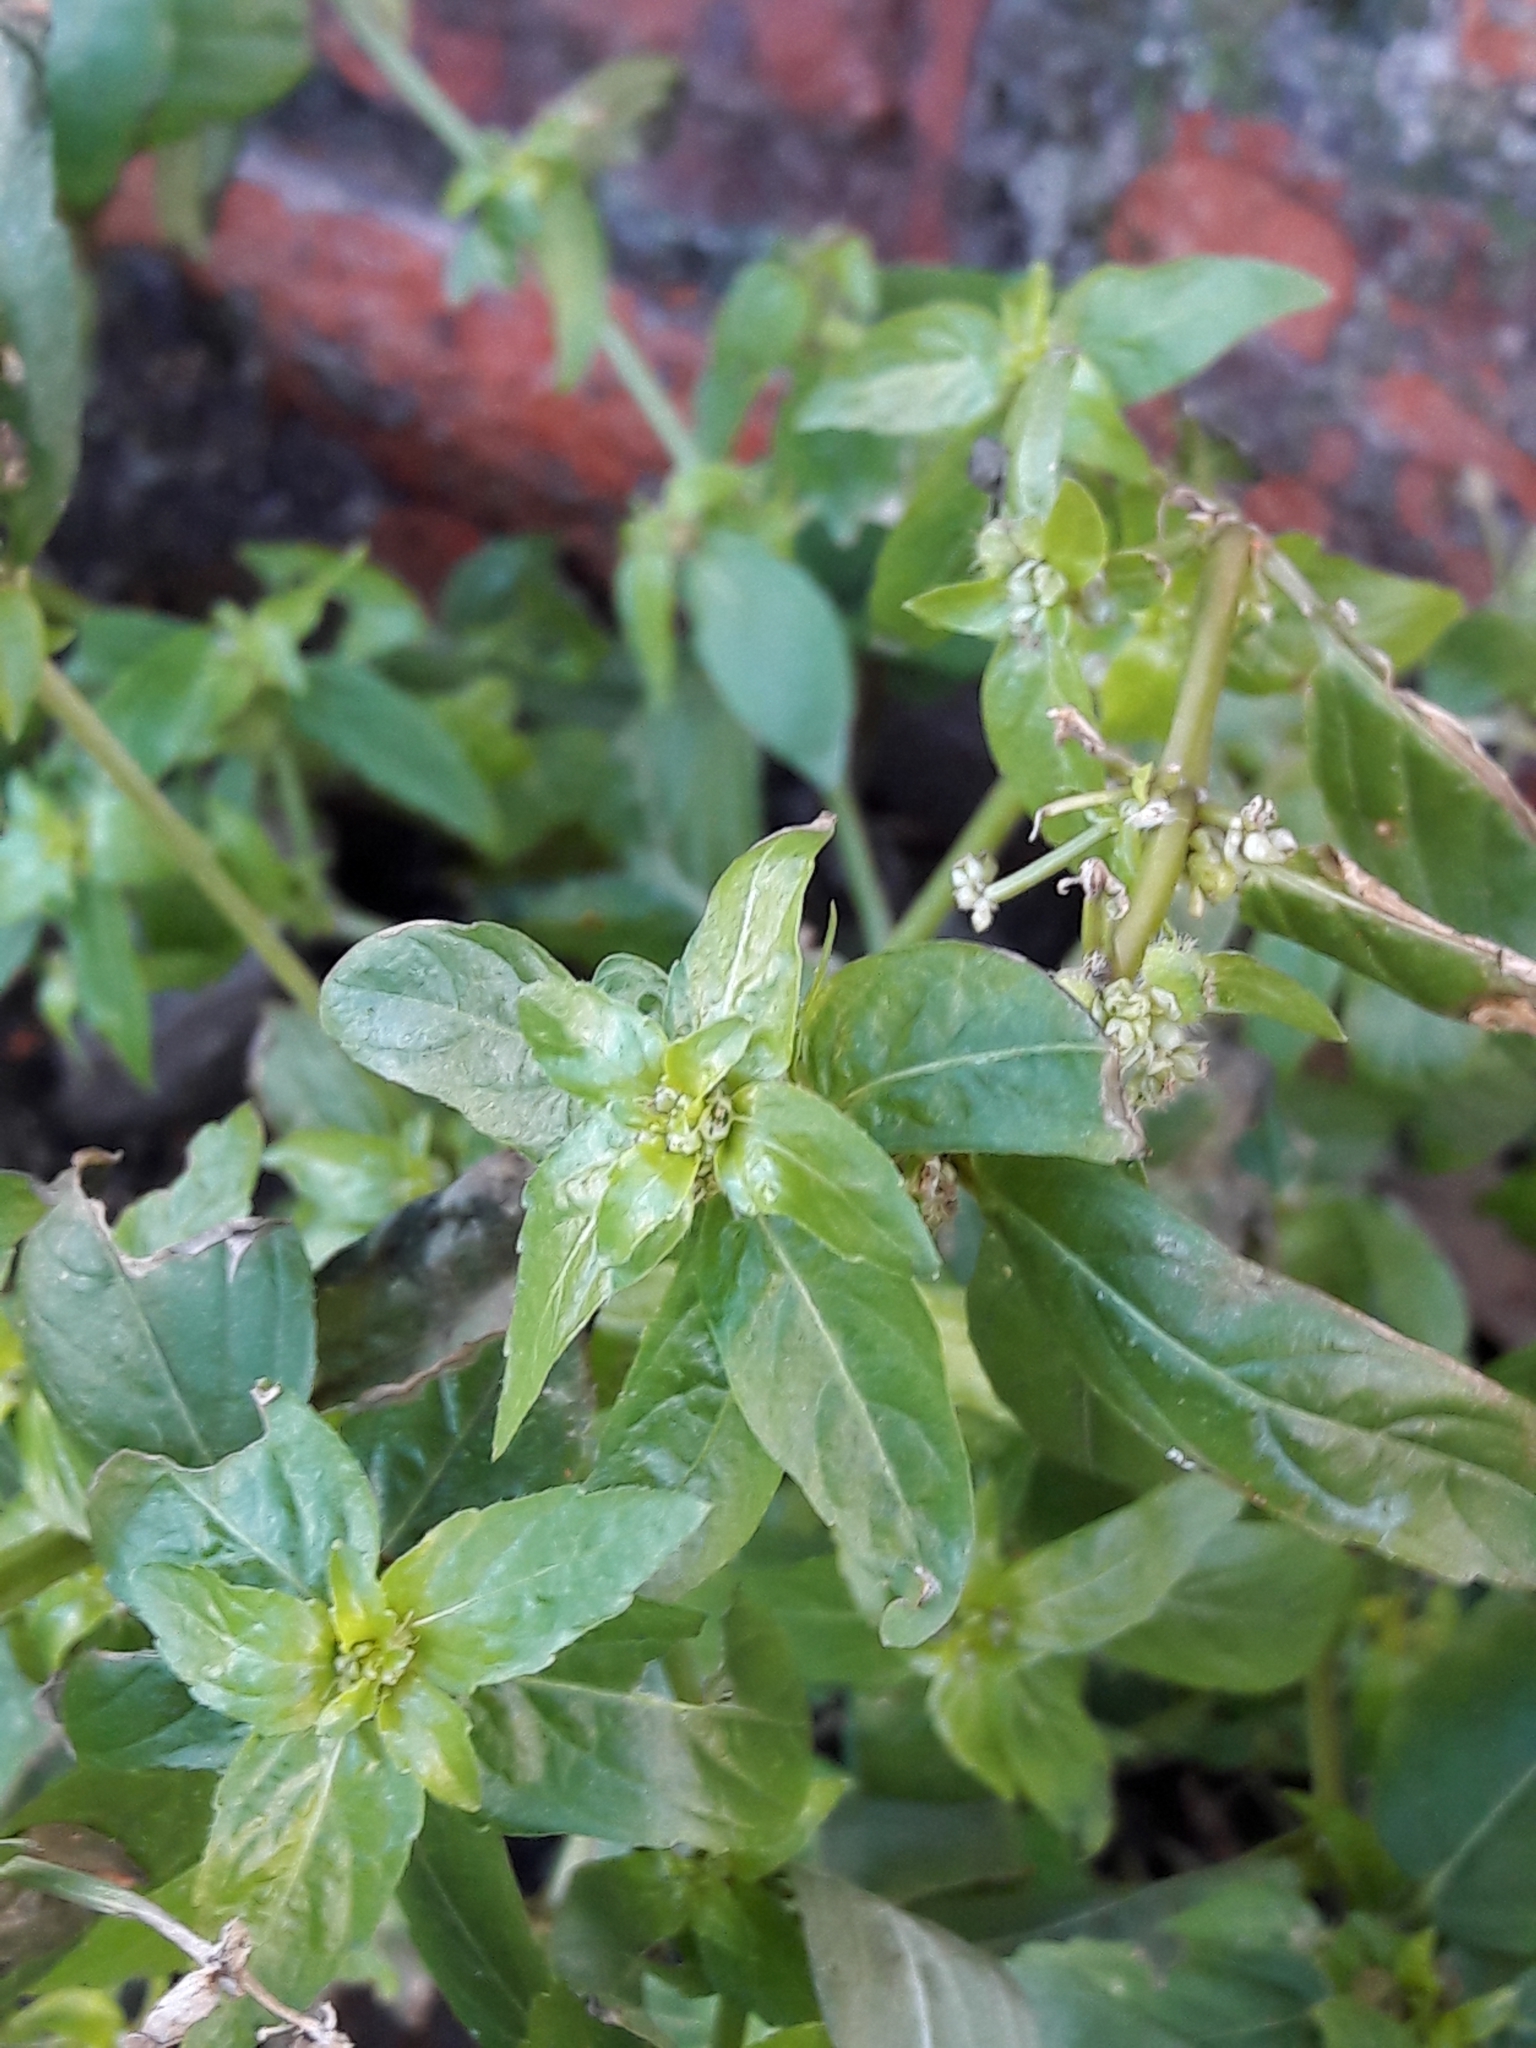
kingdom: Plantae
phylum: Tracheophyta
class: Magnoliopsida
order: Malpighiales
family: Euphorbiaceae
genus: Mercurialis
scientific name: Mercurialis annua
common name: Annual mercury
